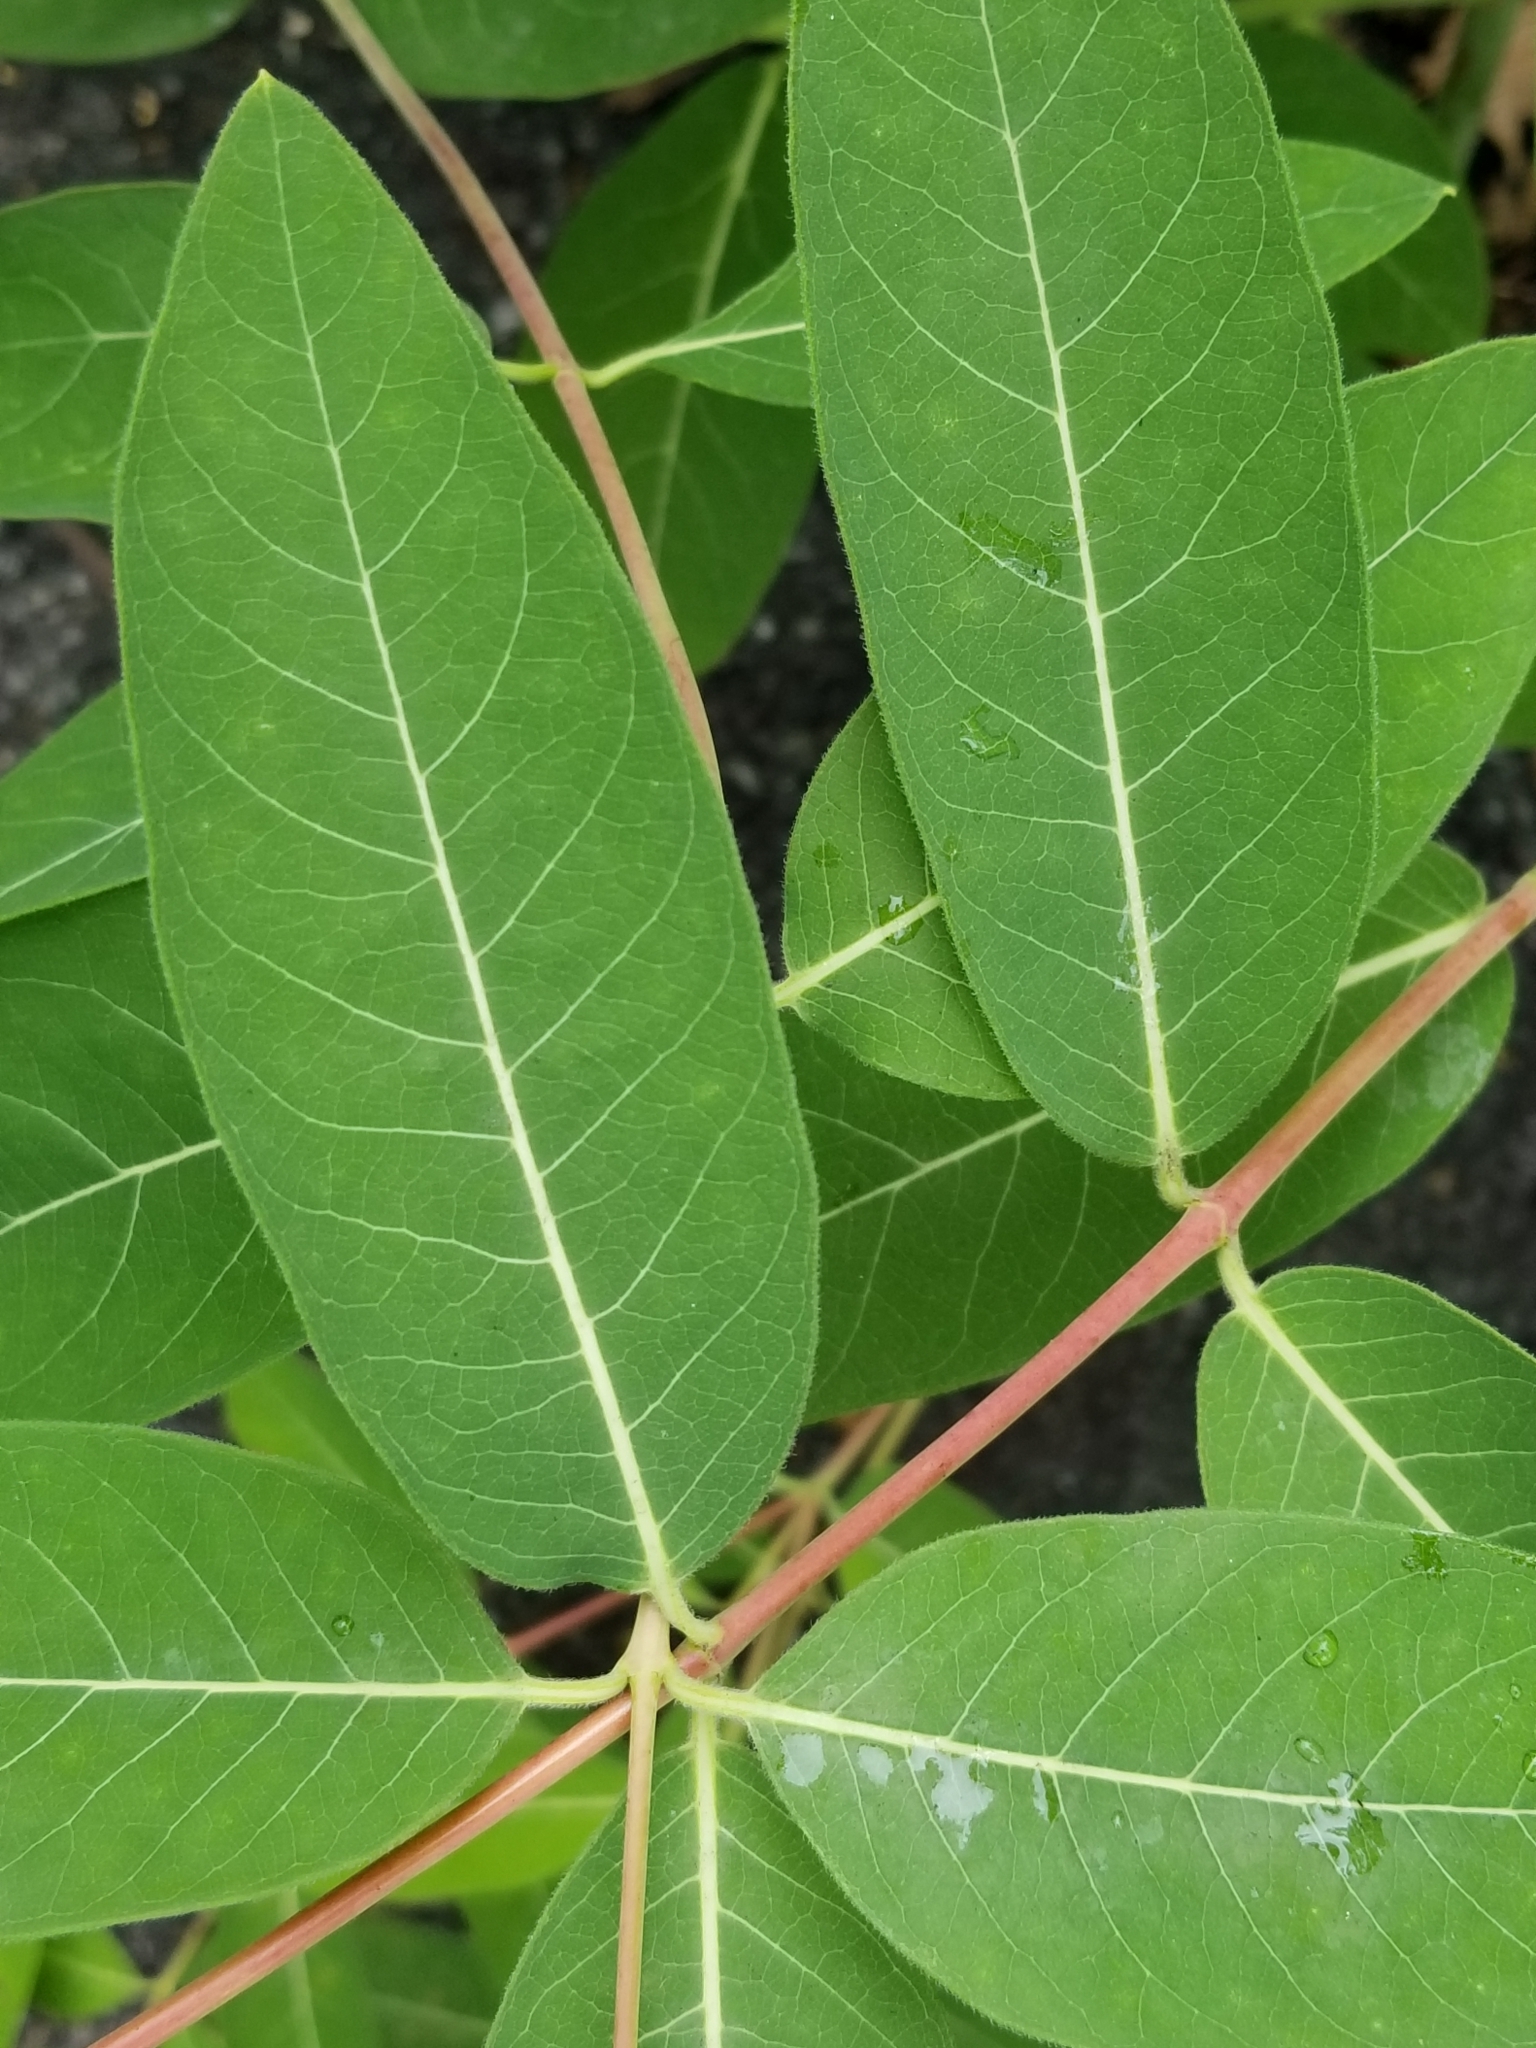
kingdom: Plantae
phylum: Tracheophyta
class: Magnoliopsida
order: Gentianales
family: Apocynaceae
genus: Apocynum
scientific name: Apocynum cannabinum
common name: Hemp dogbane
